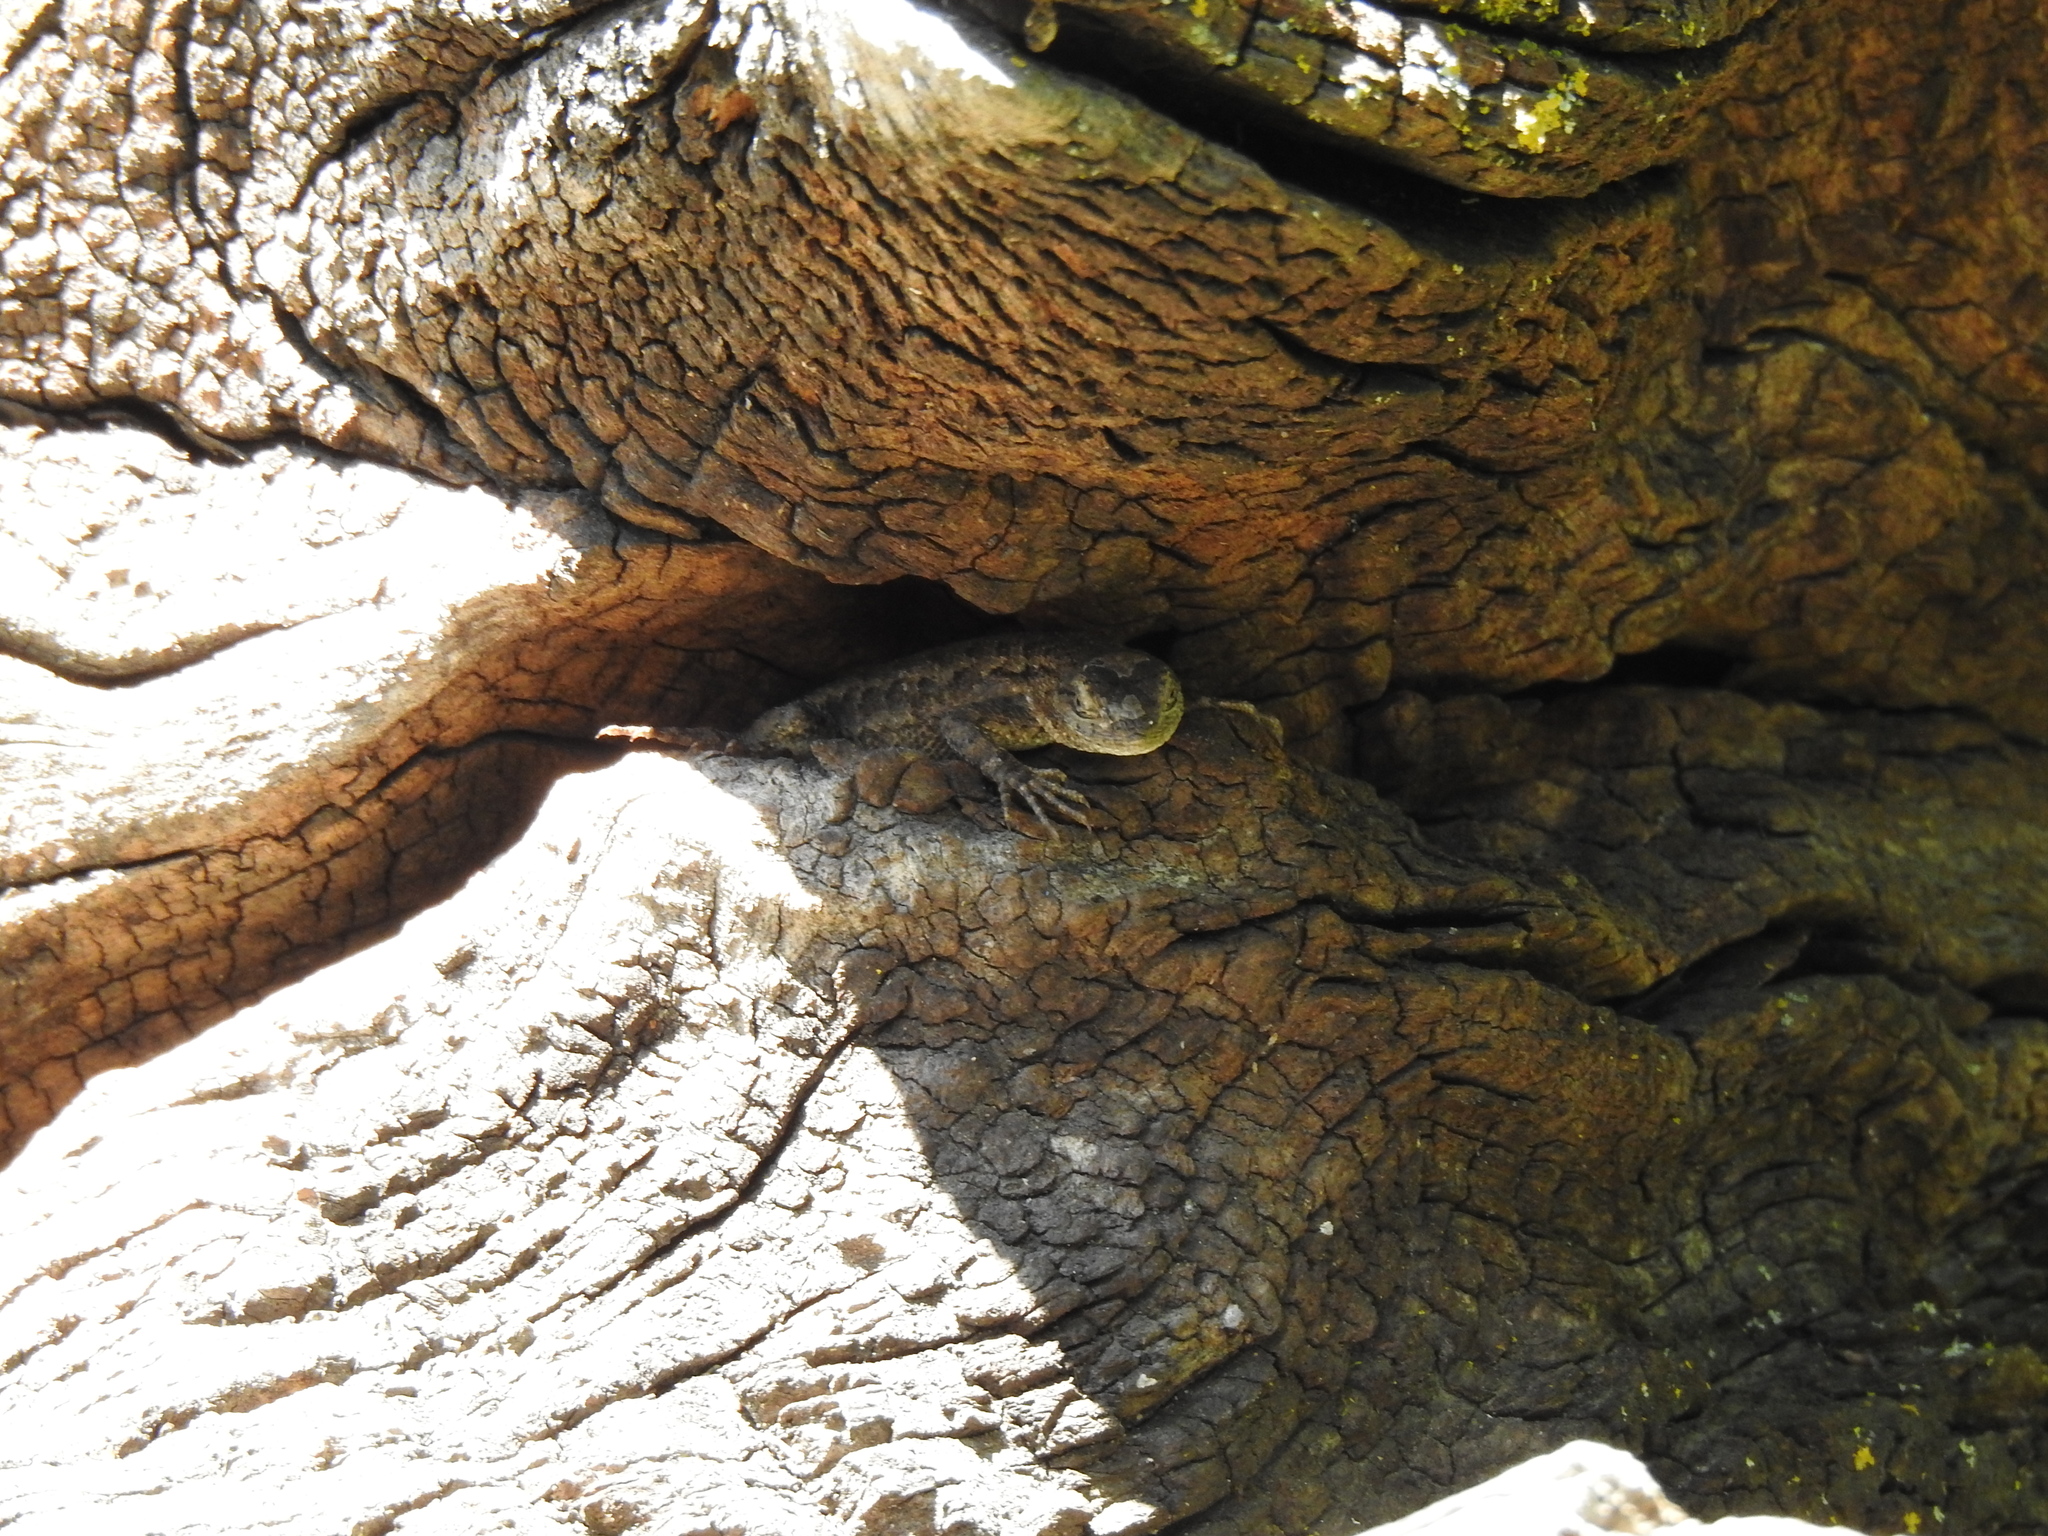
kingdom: Animalia
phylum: Chordata
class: Squamata
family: Phrynosomatidae
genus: Sceloporus
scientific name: Sceloporus occidentalis
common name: Western fence lizard
